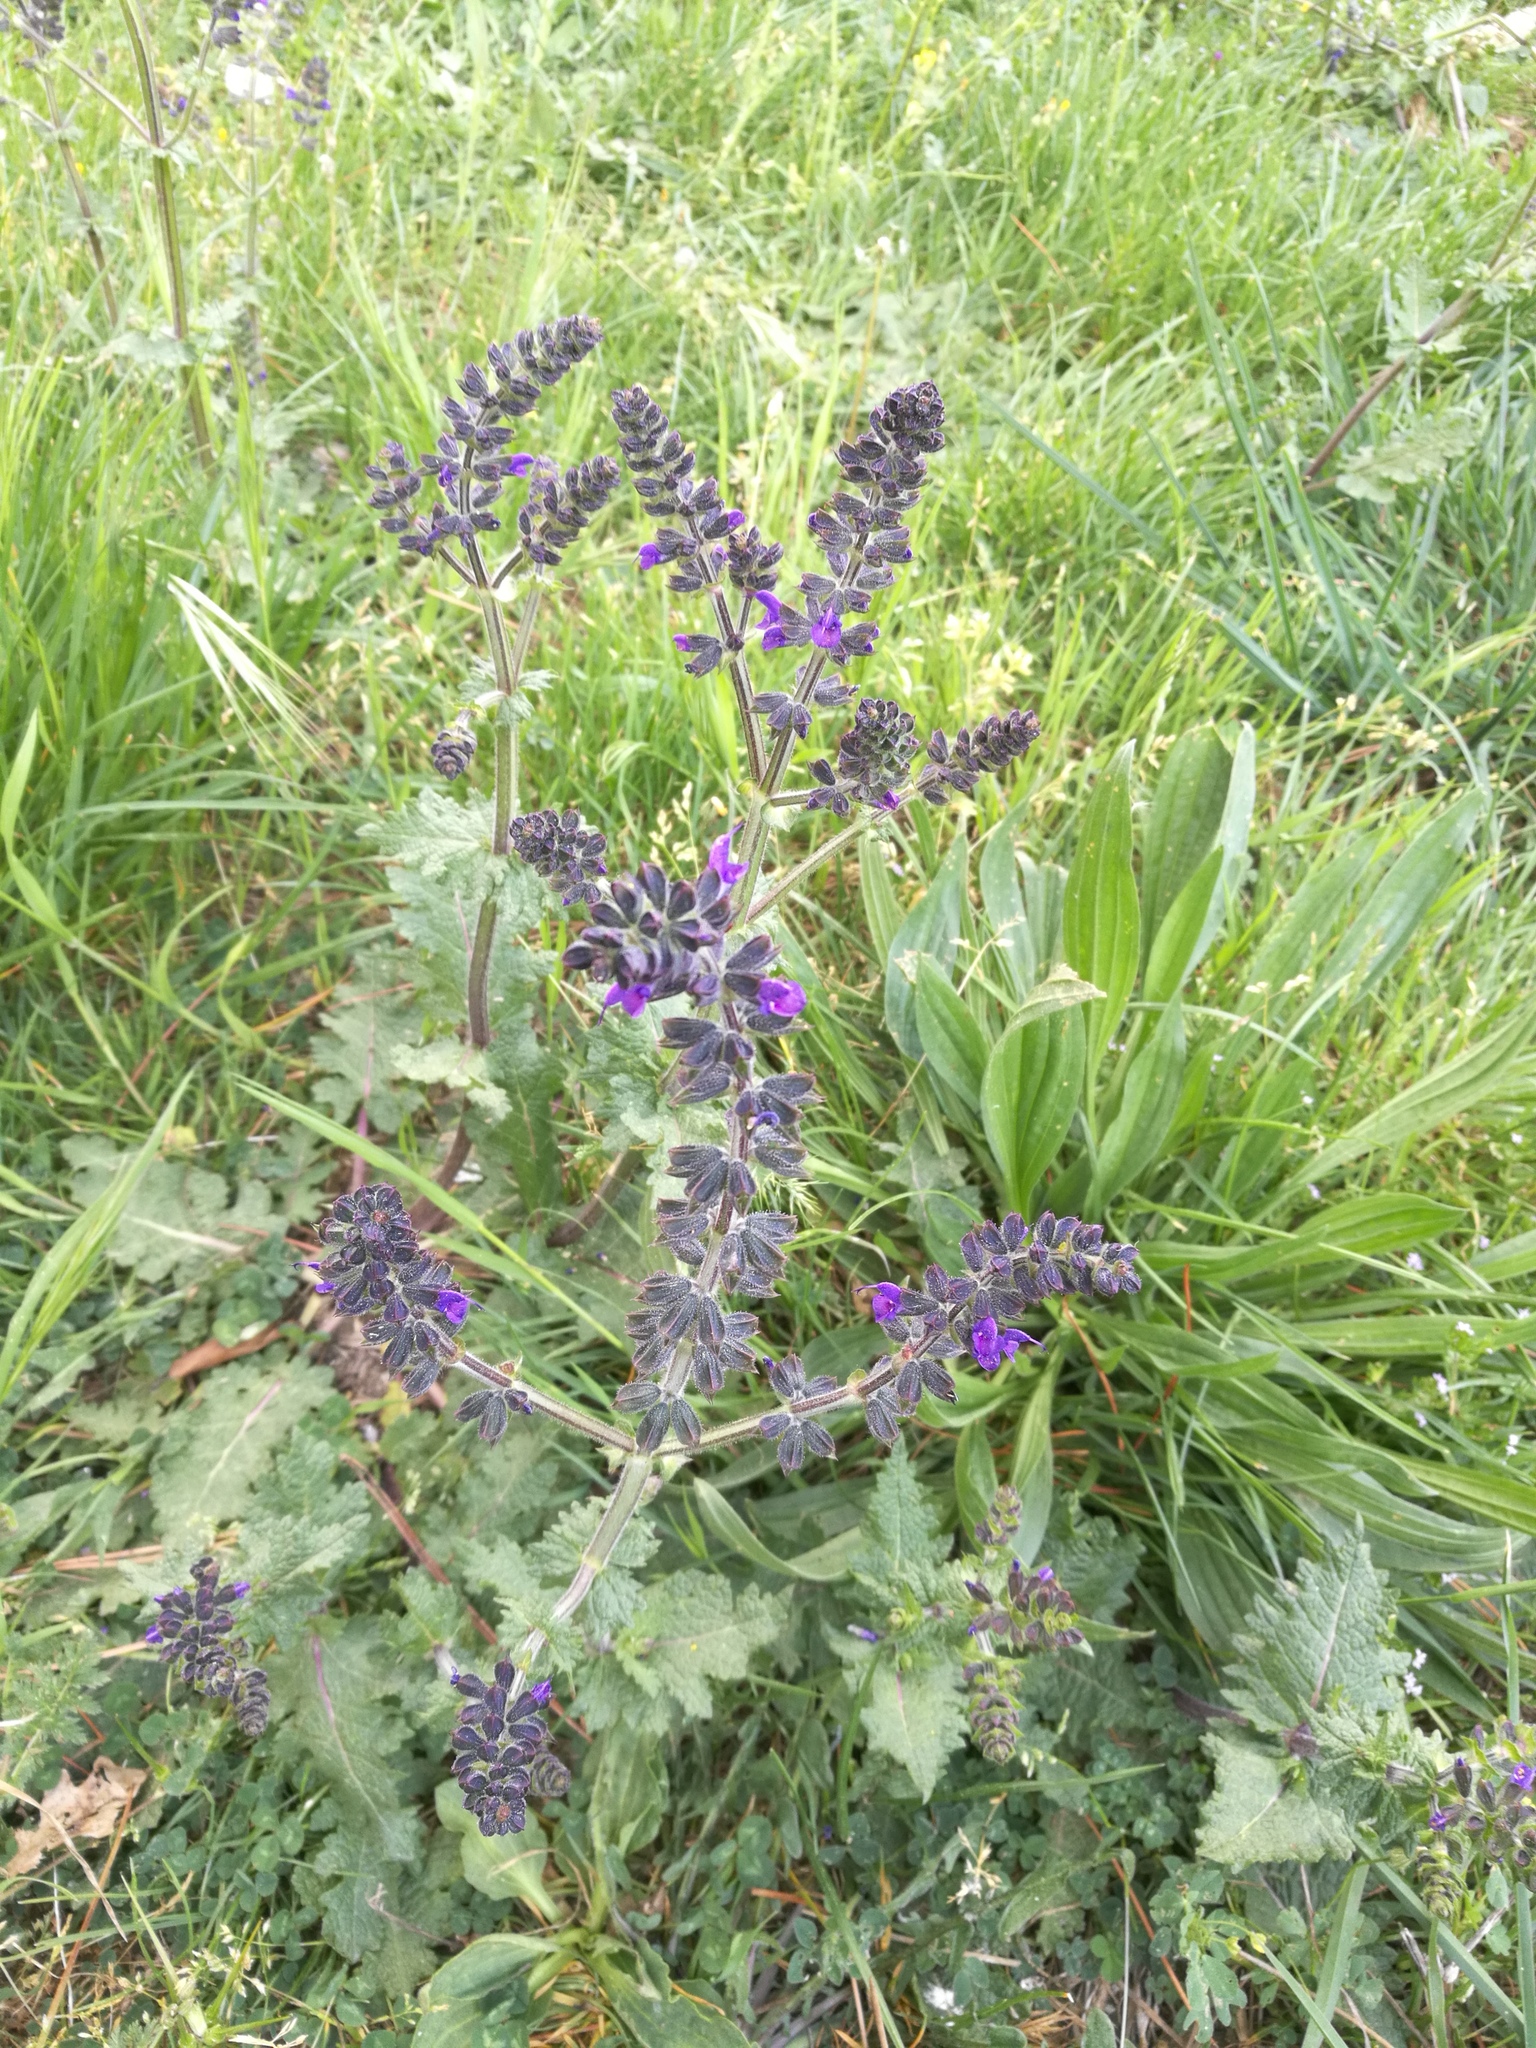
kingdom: Plantae
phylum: Tracheophyta
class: Magnoliopsida
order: Lamiales
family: Lamiaceae
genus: Salvia
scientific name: Salvia verbenaca
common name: Wild clary
